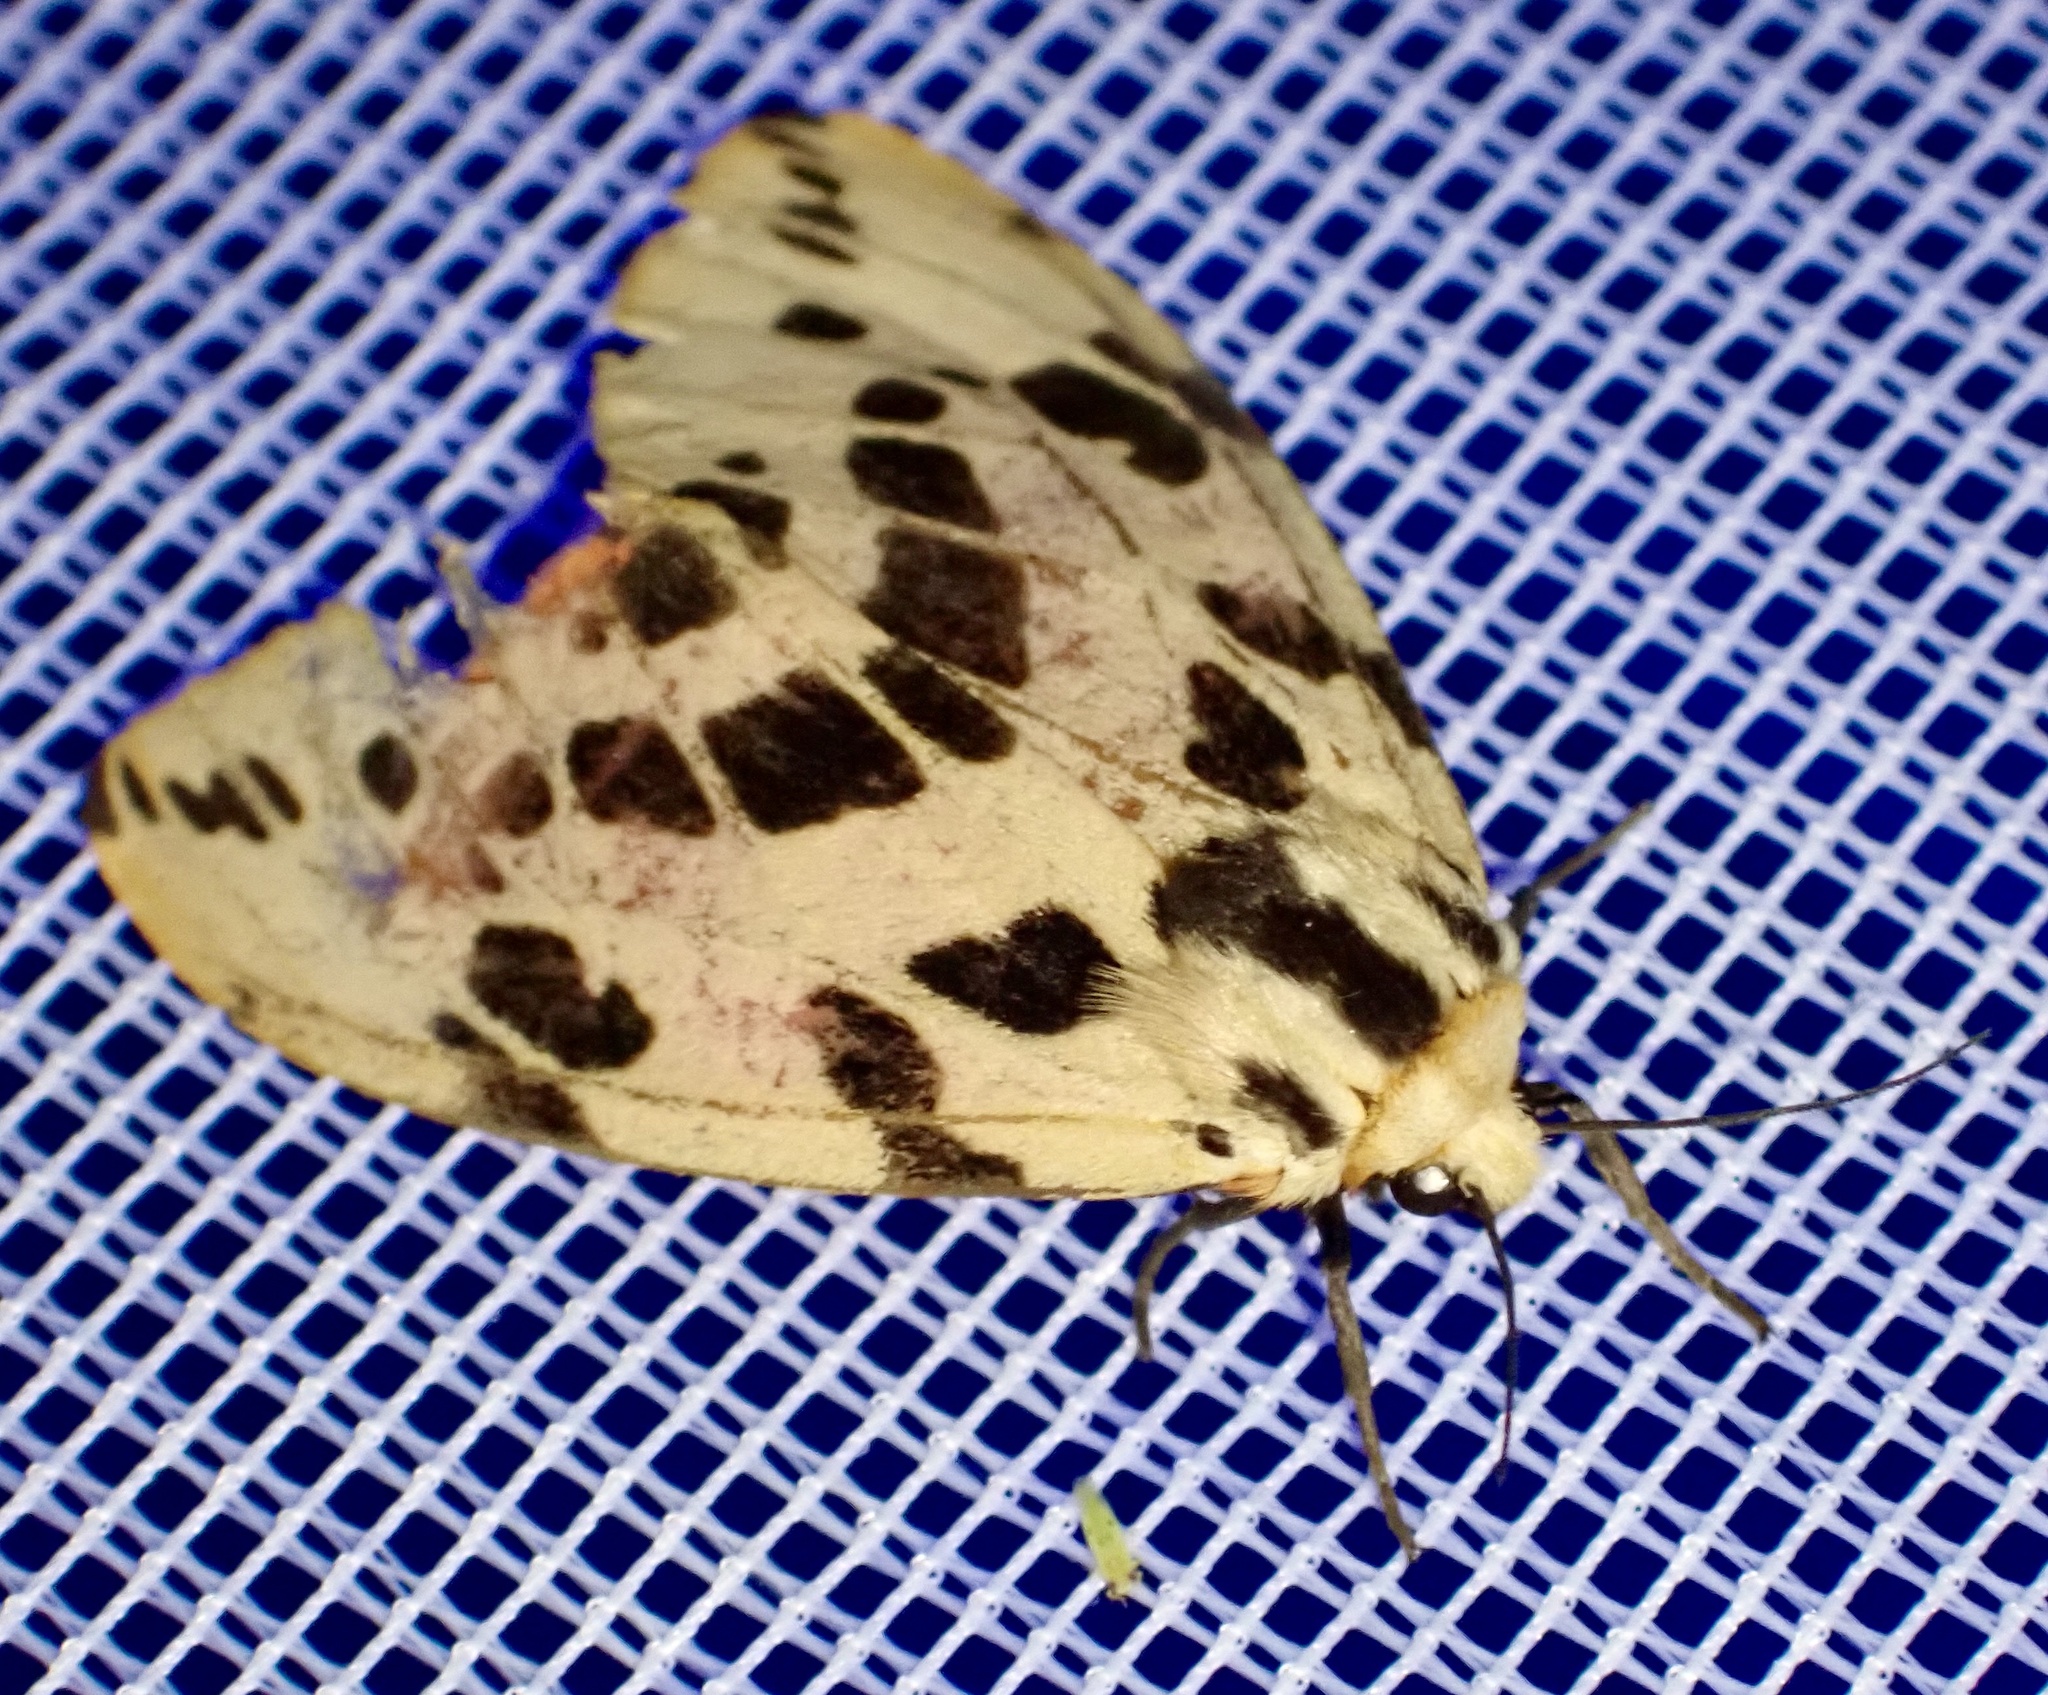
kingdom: Animalia
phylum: Arthropoda
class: Insecta
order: Lepidoptera
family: Erebidae
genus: Spilosoma
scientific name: Spilosoma arctichroa
